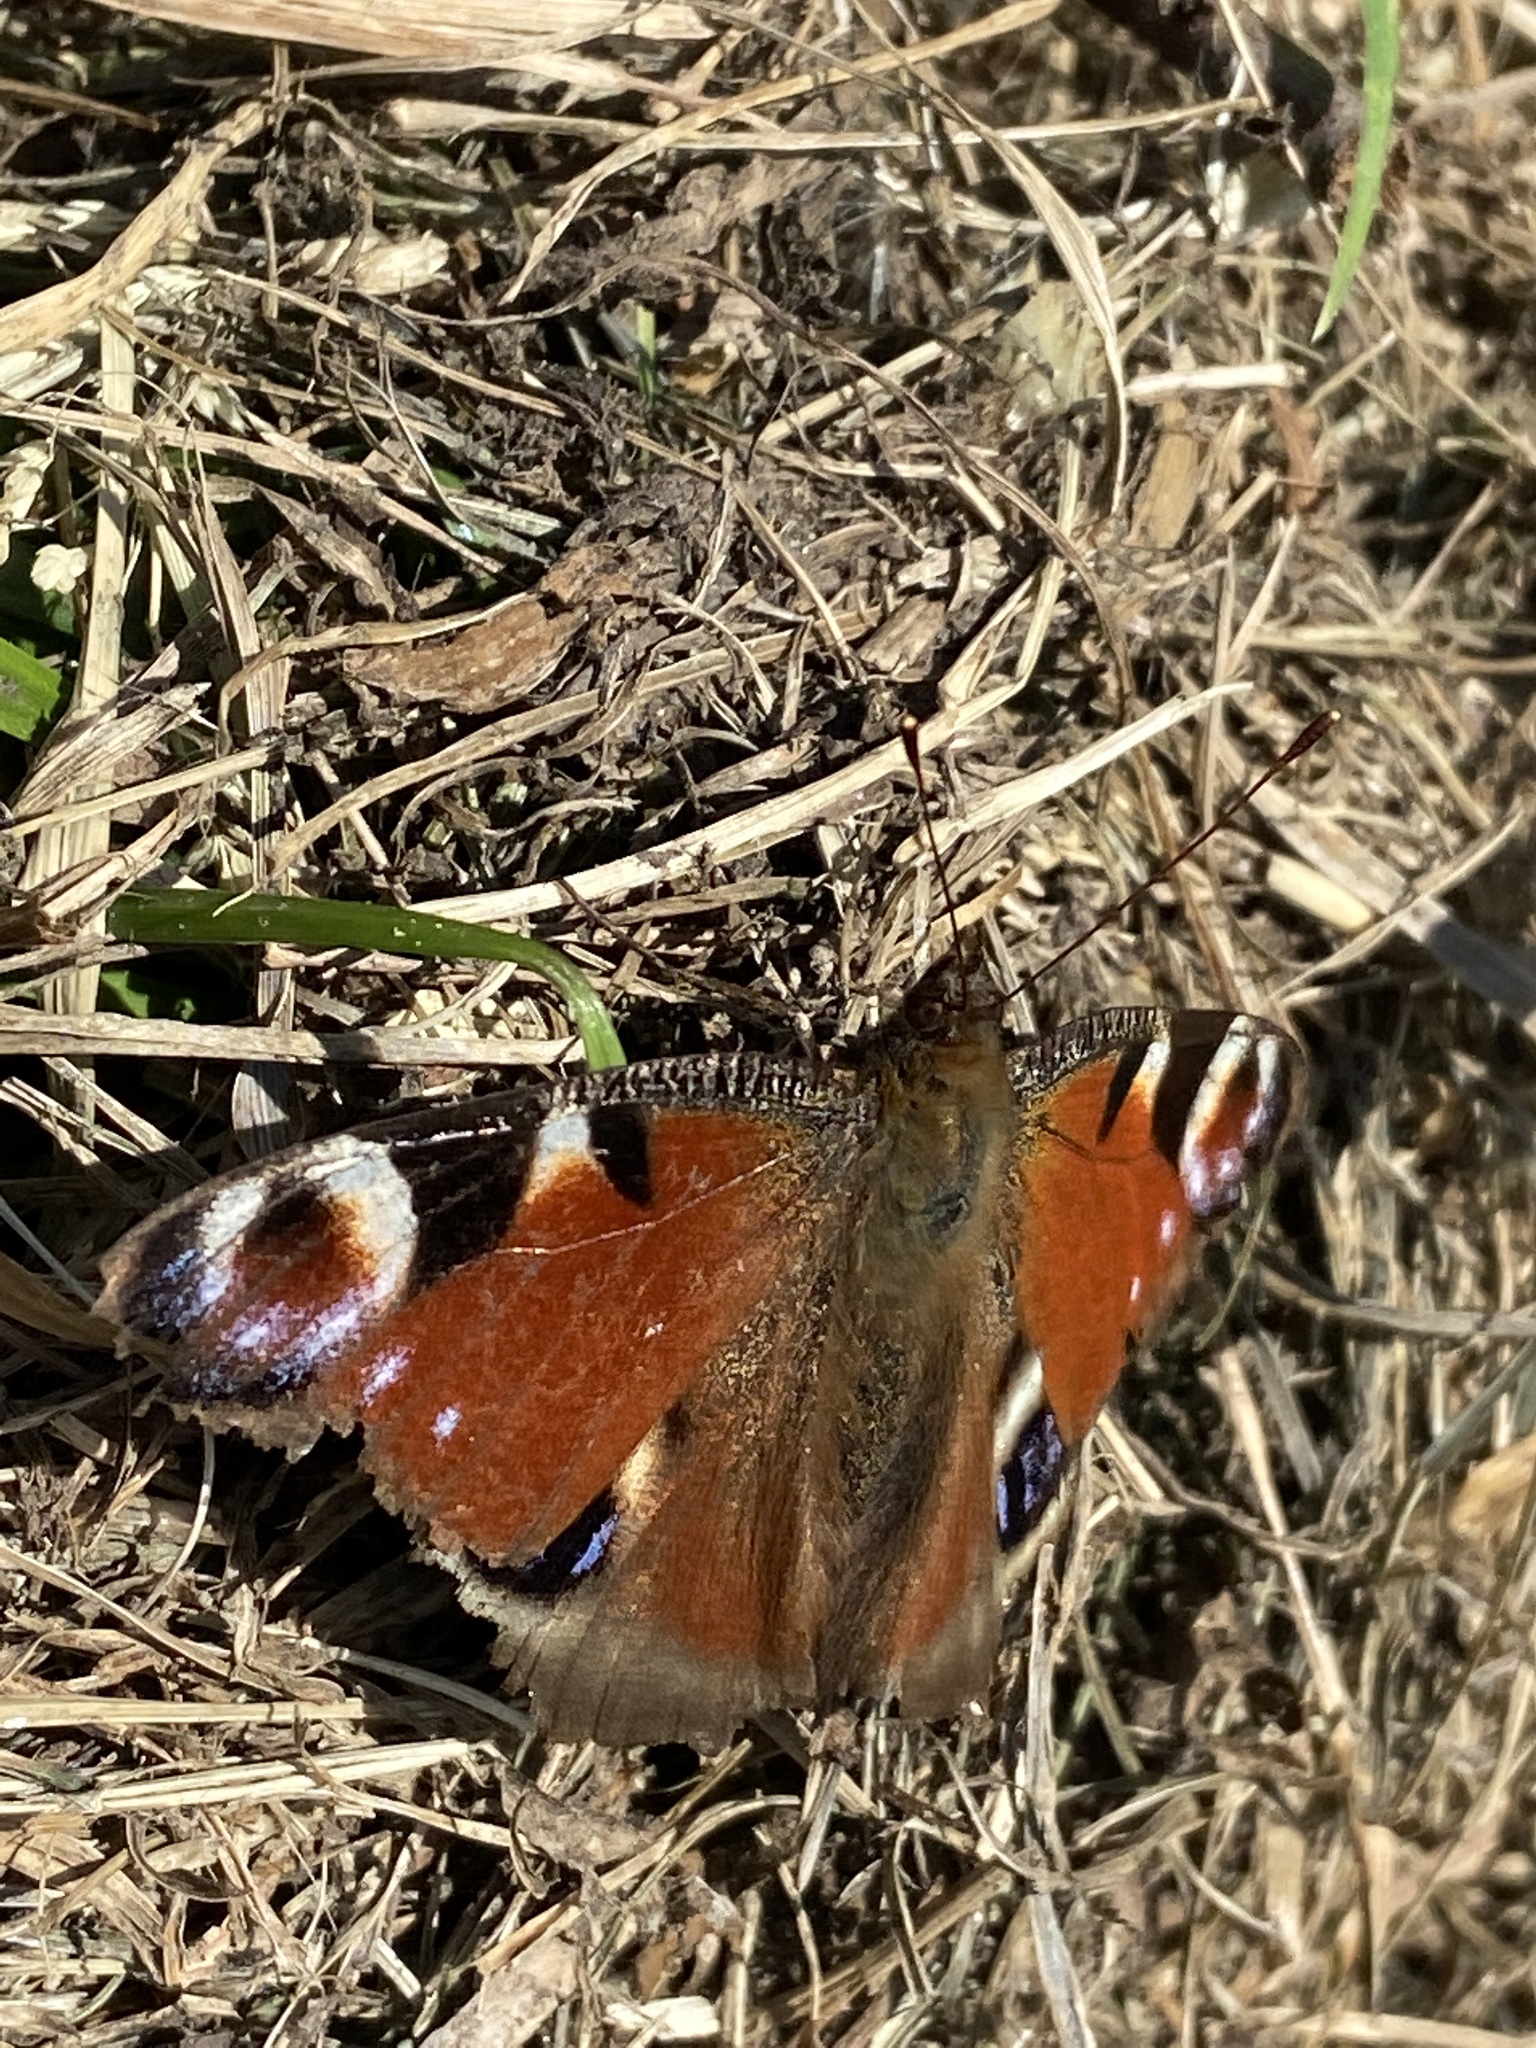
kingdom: Animalia
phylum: Arthropoda
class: Insecta
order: Lepidoptera
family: Nymphalidae
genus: Aglais
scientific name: Aglais io
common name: Peacock
